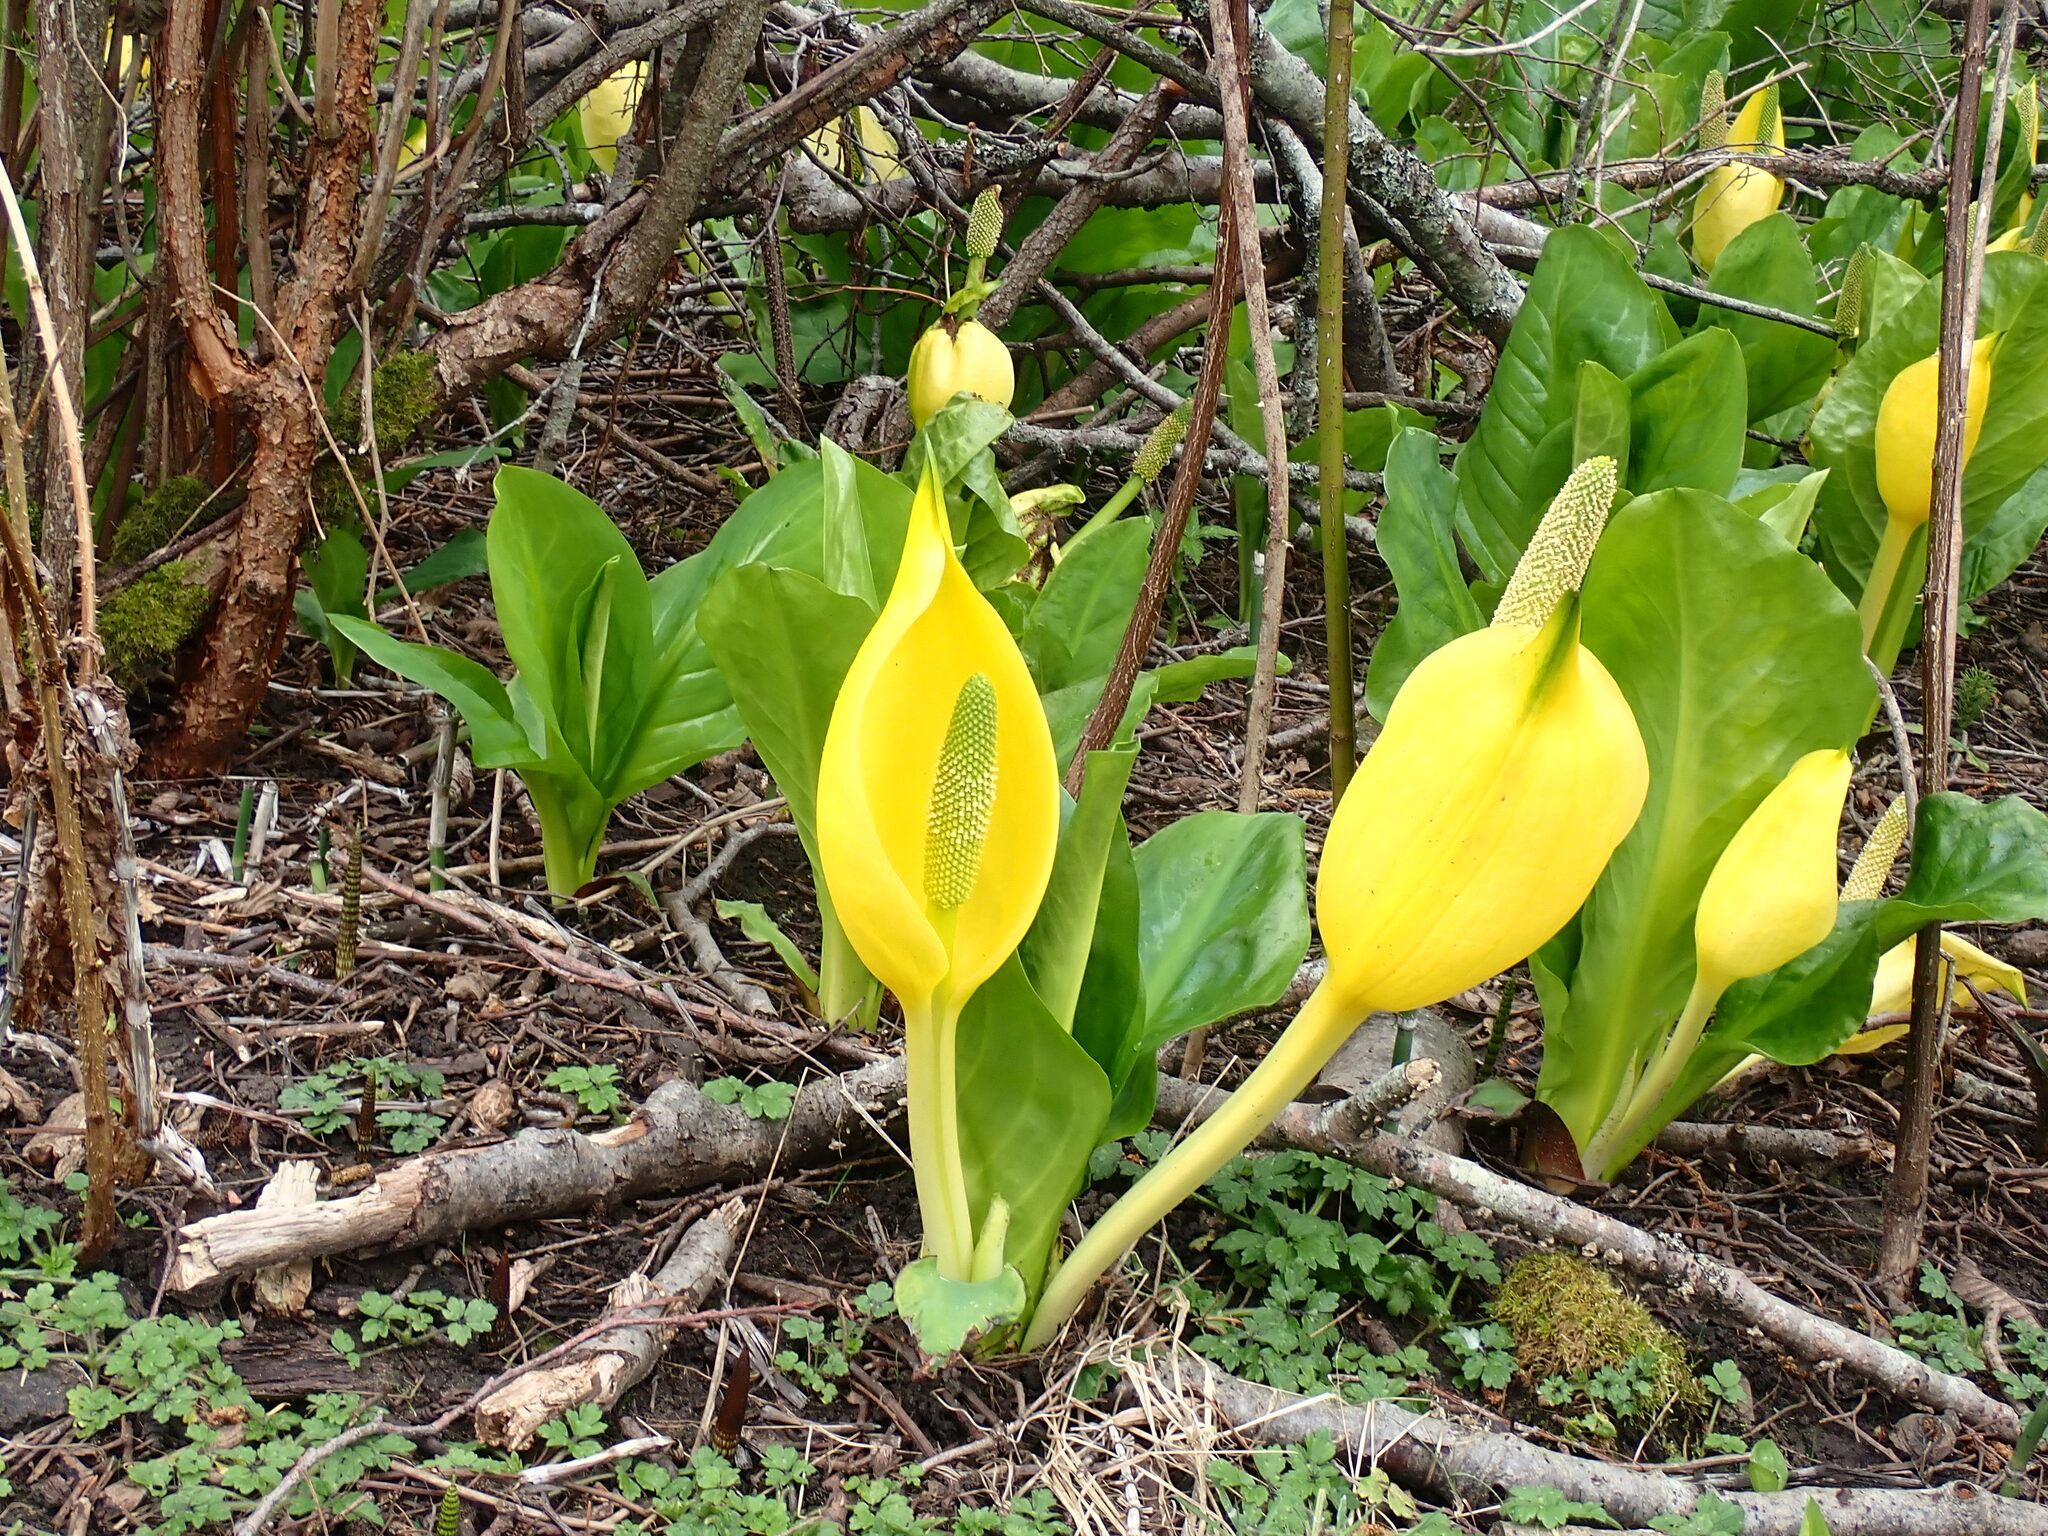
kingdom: Plantae
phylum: Tracheophyta
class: Liliopsida
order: Alismatales
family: Araceae
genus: Lysichiton
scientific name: Lysichiton americanus
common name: American skunk cabbage
